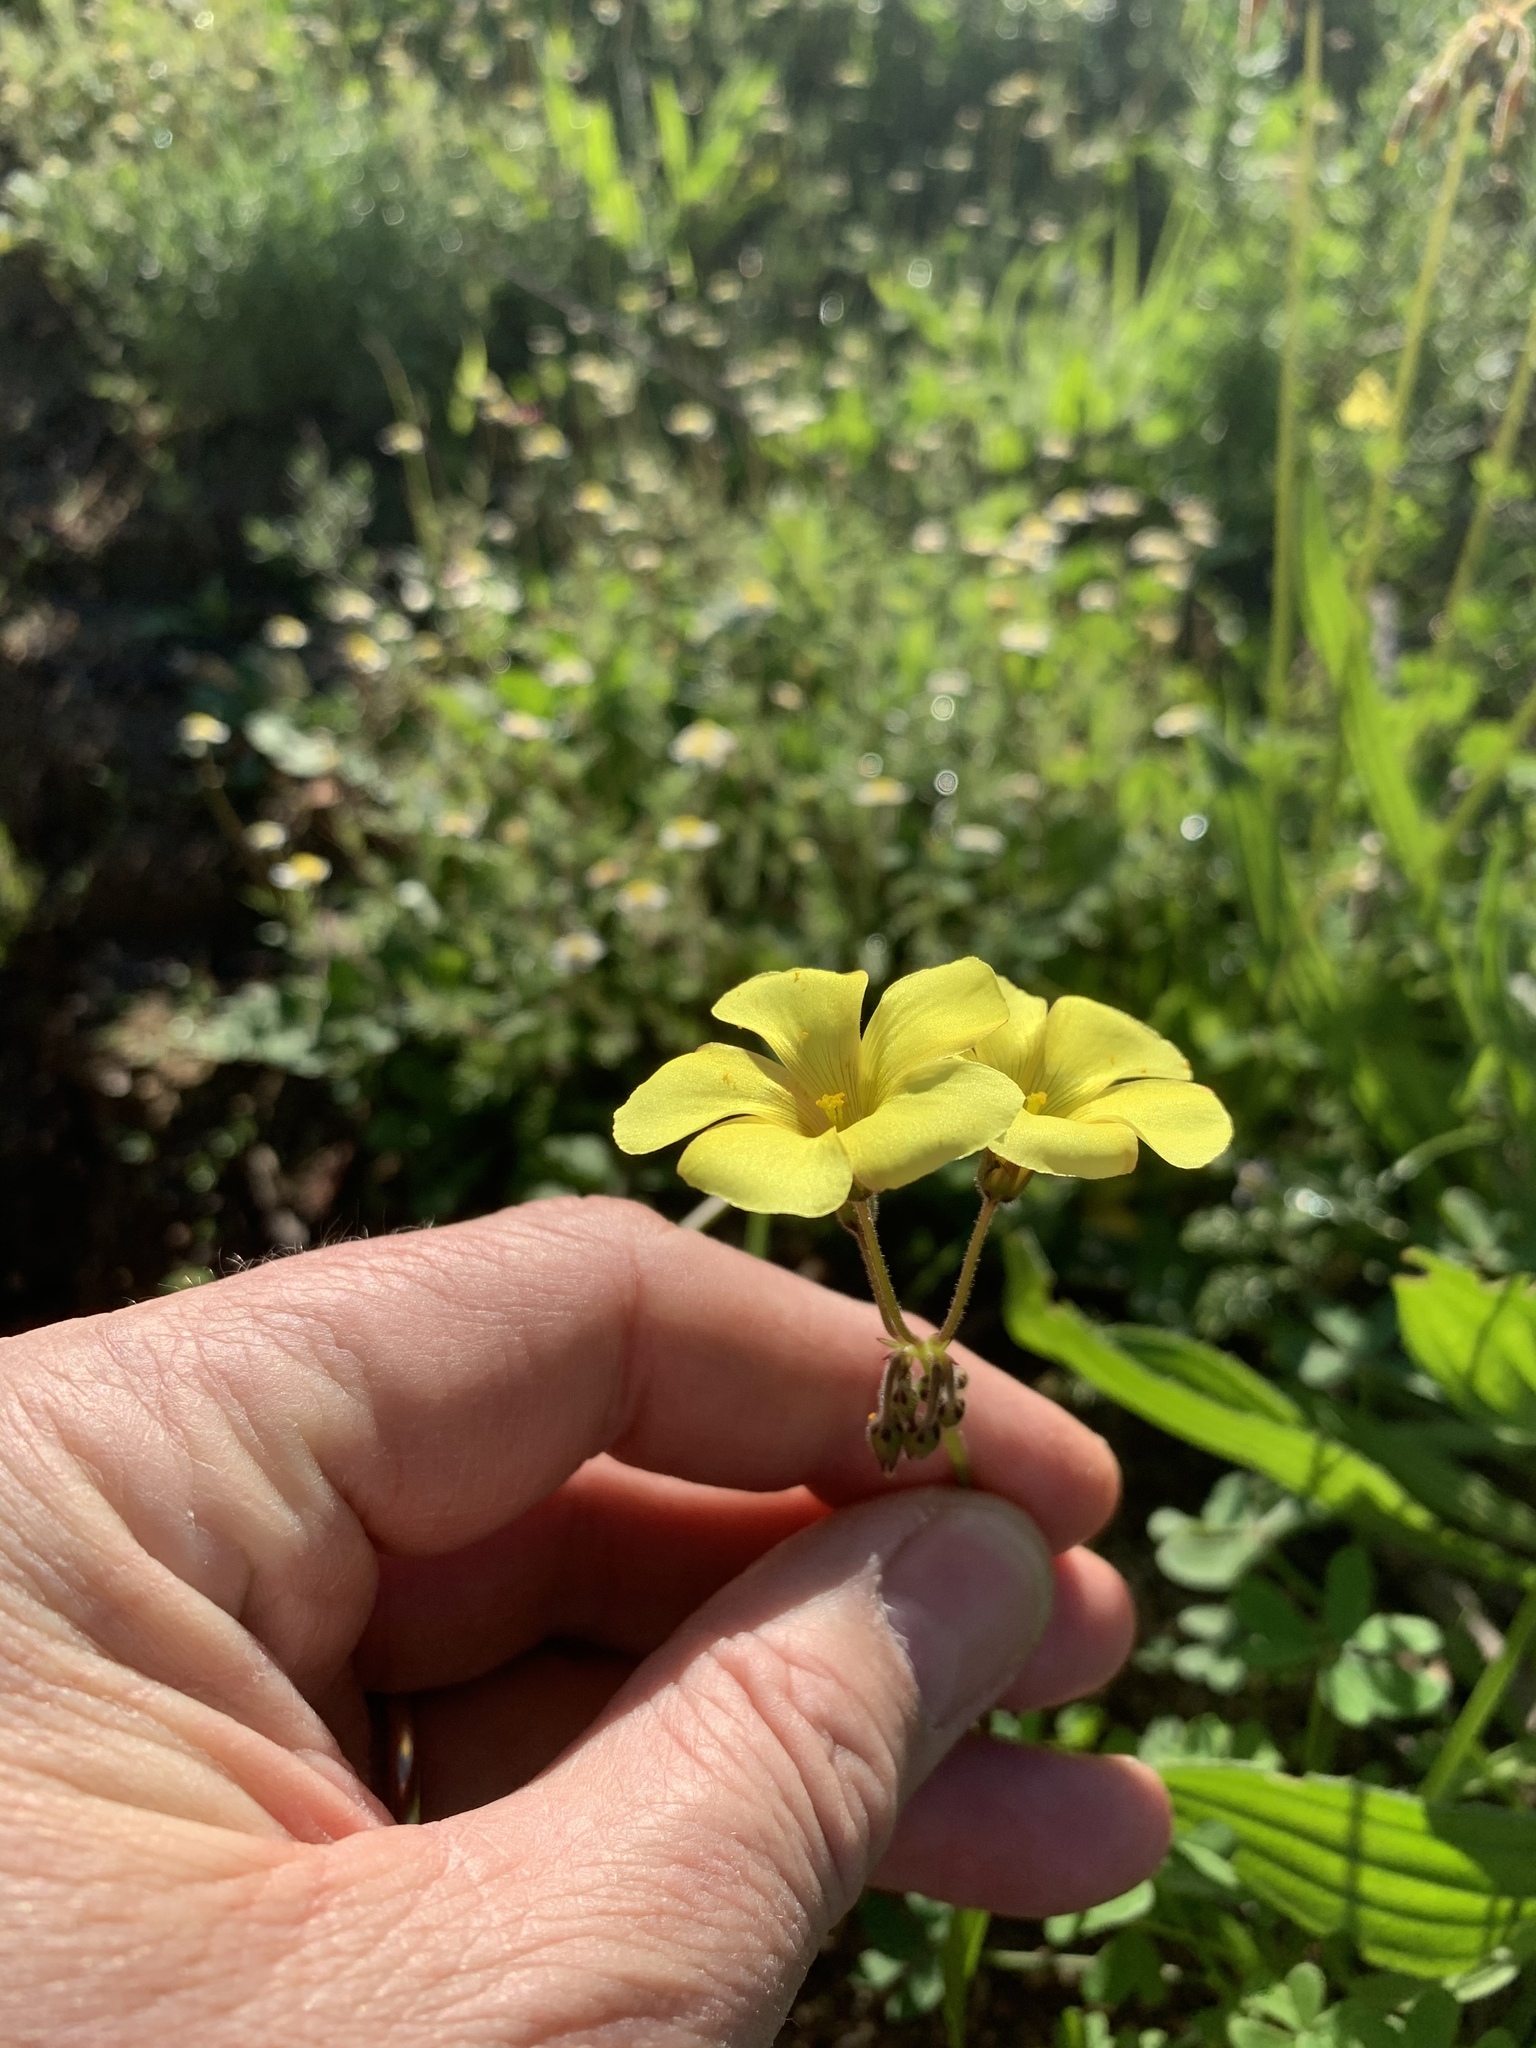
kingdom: Plantae
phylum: Tracheophyta
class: Magnoliopsida
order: Oxalidales
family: Oxalidaceae
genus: Oxalis
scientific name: Oxalis pes-caprae
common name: Bermuda-buttercup
